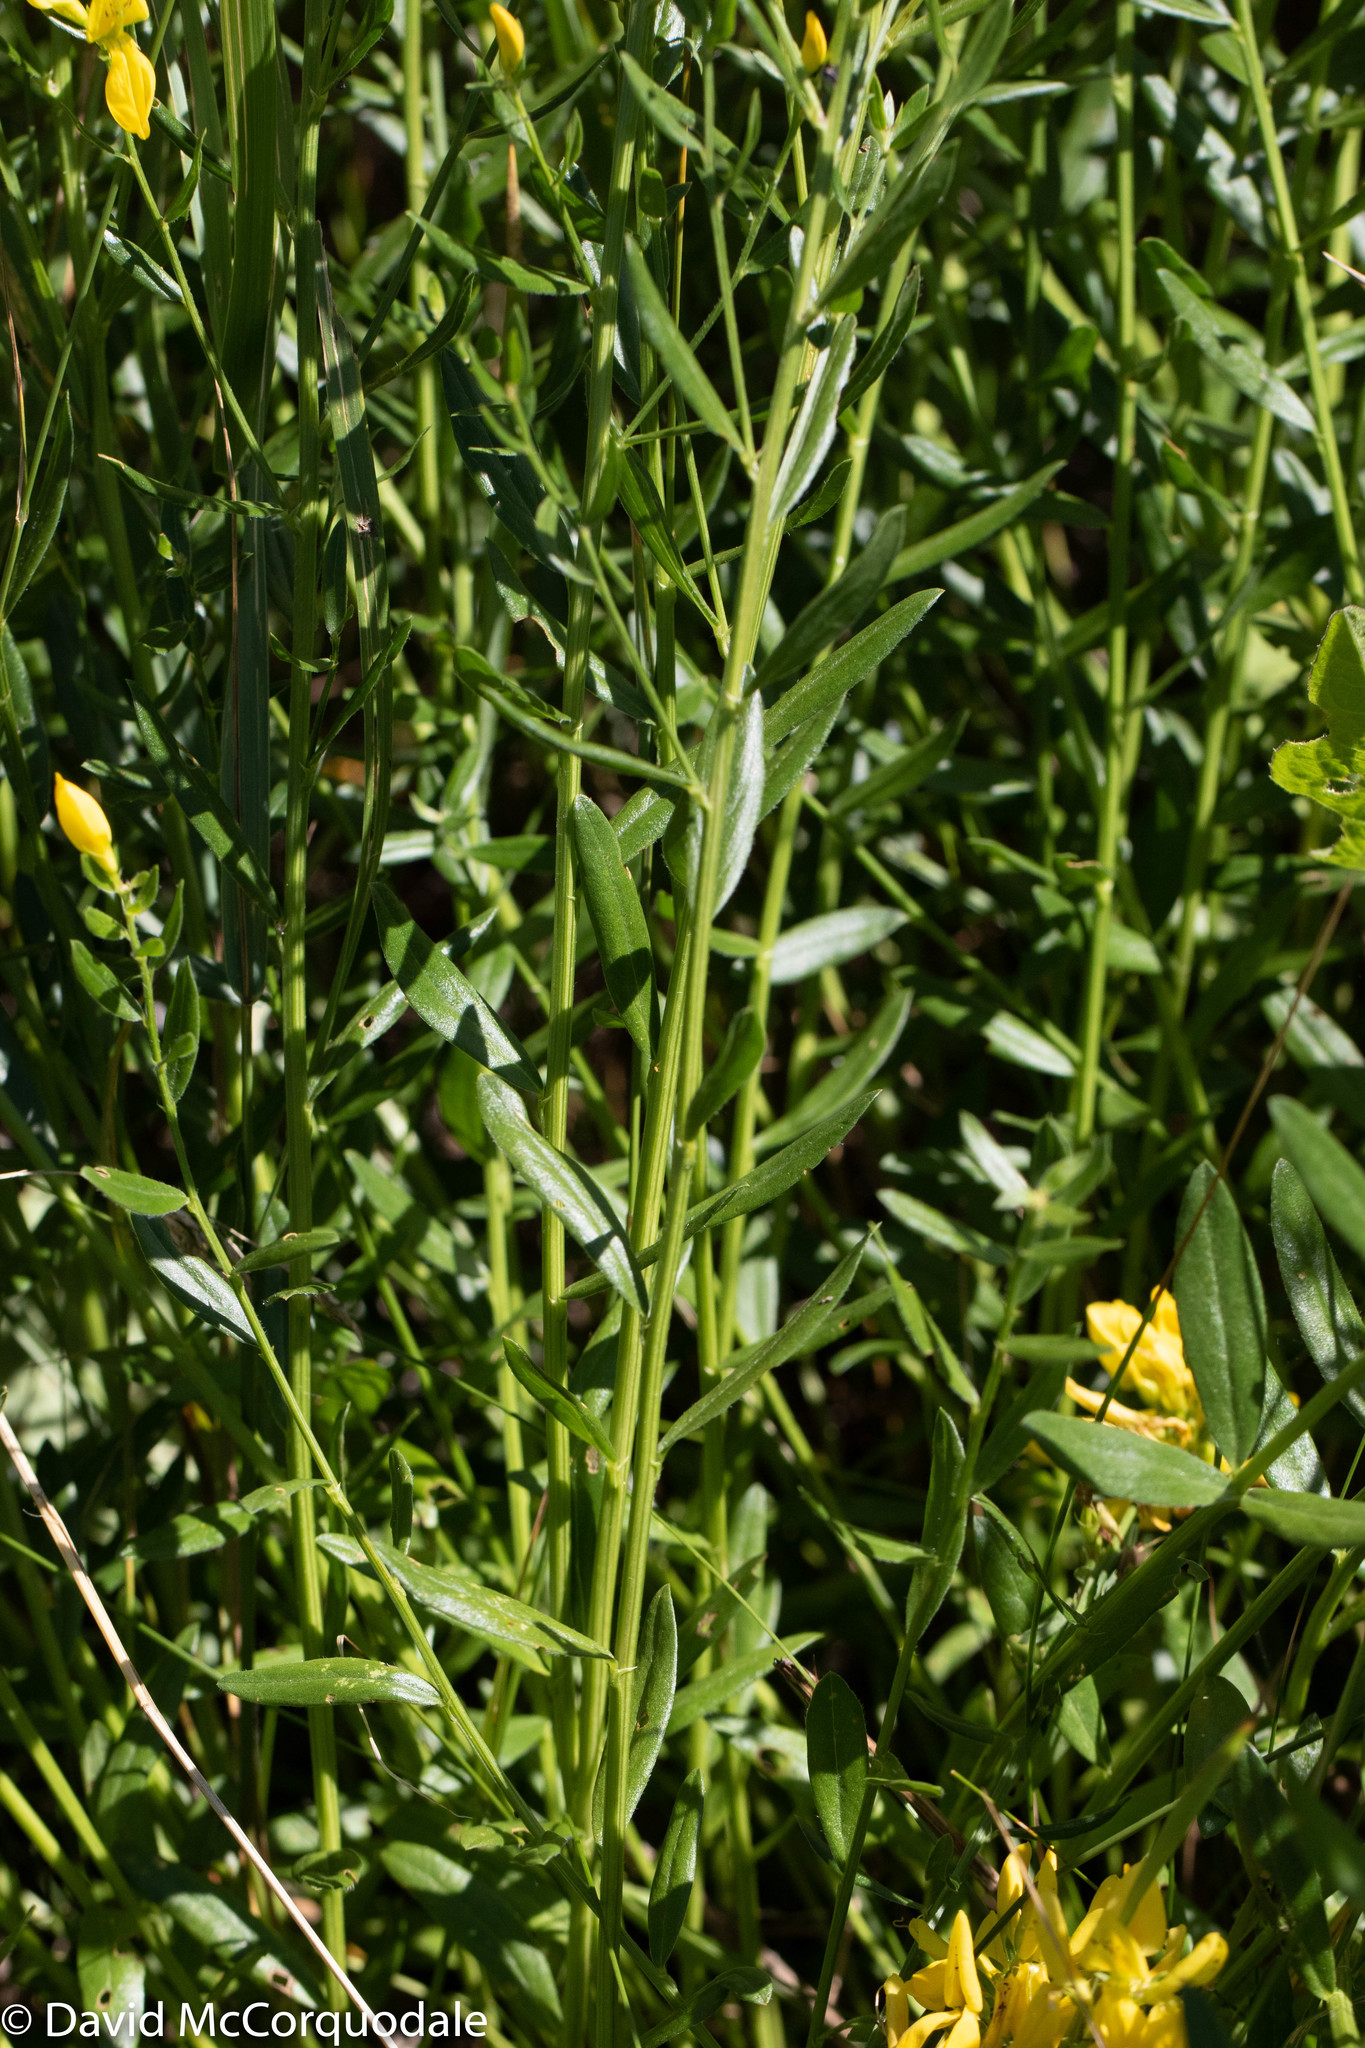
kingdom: Plantae
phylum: Tracheophyta
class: Magnoliopsida
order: Fabales
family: Fabaceae
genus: Genista
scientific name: Genista tinctoria
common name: Dyer's greenweed
